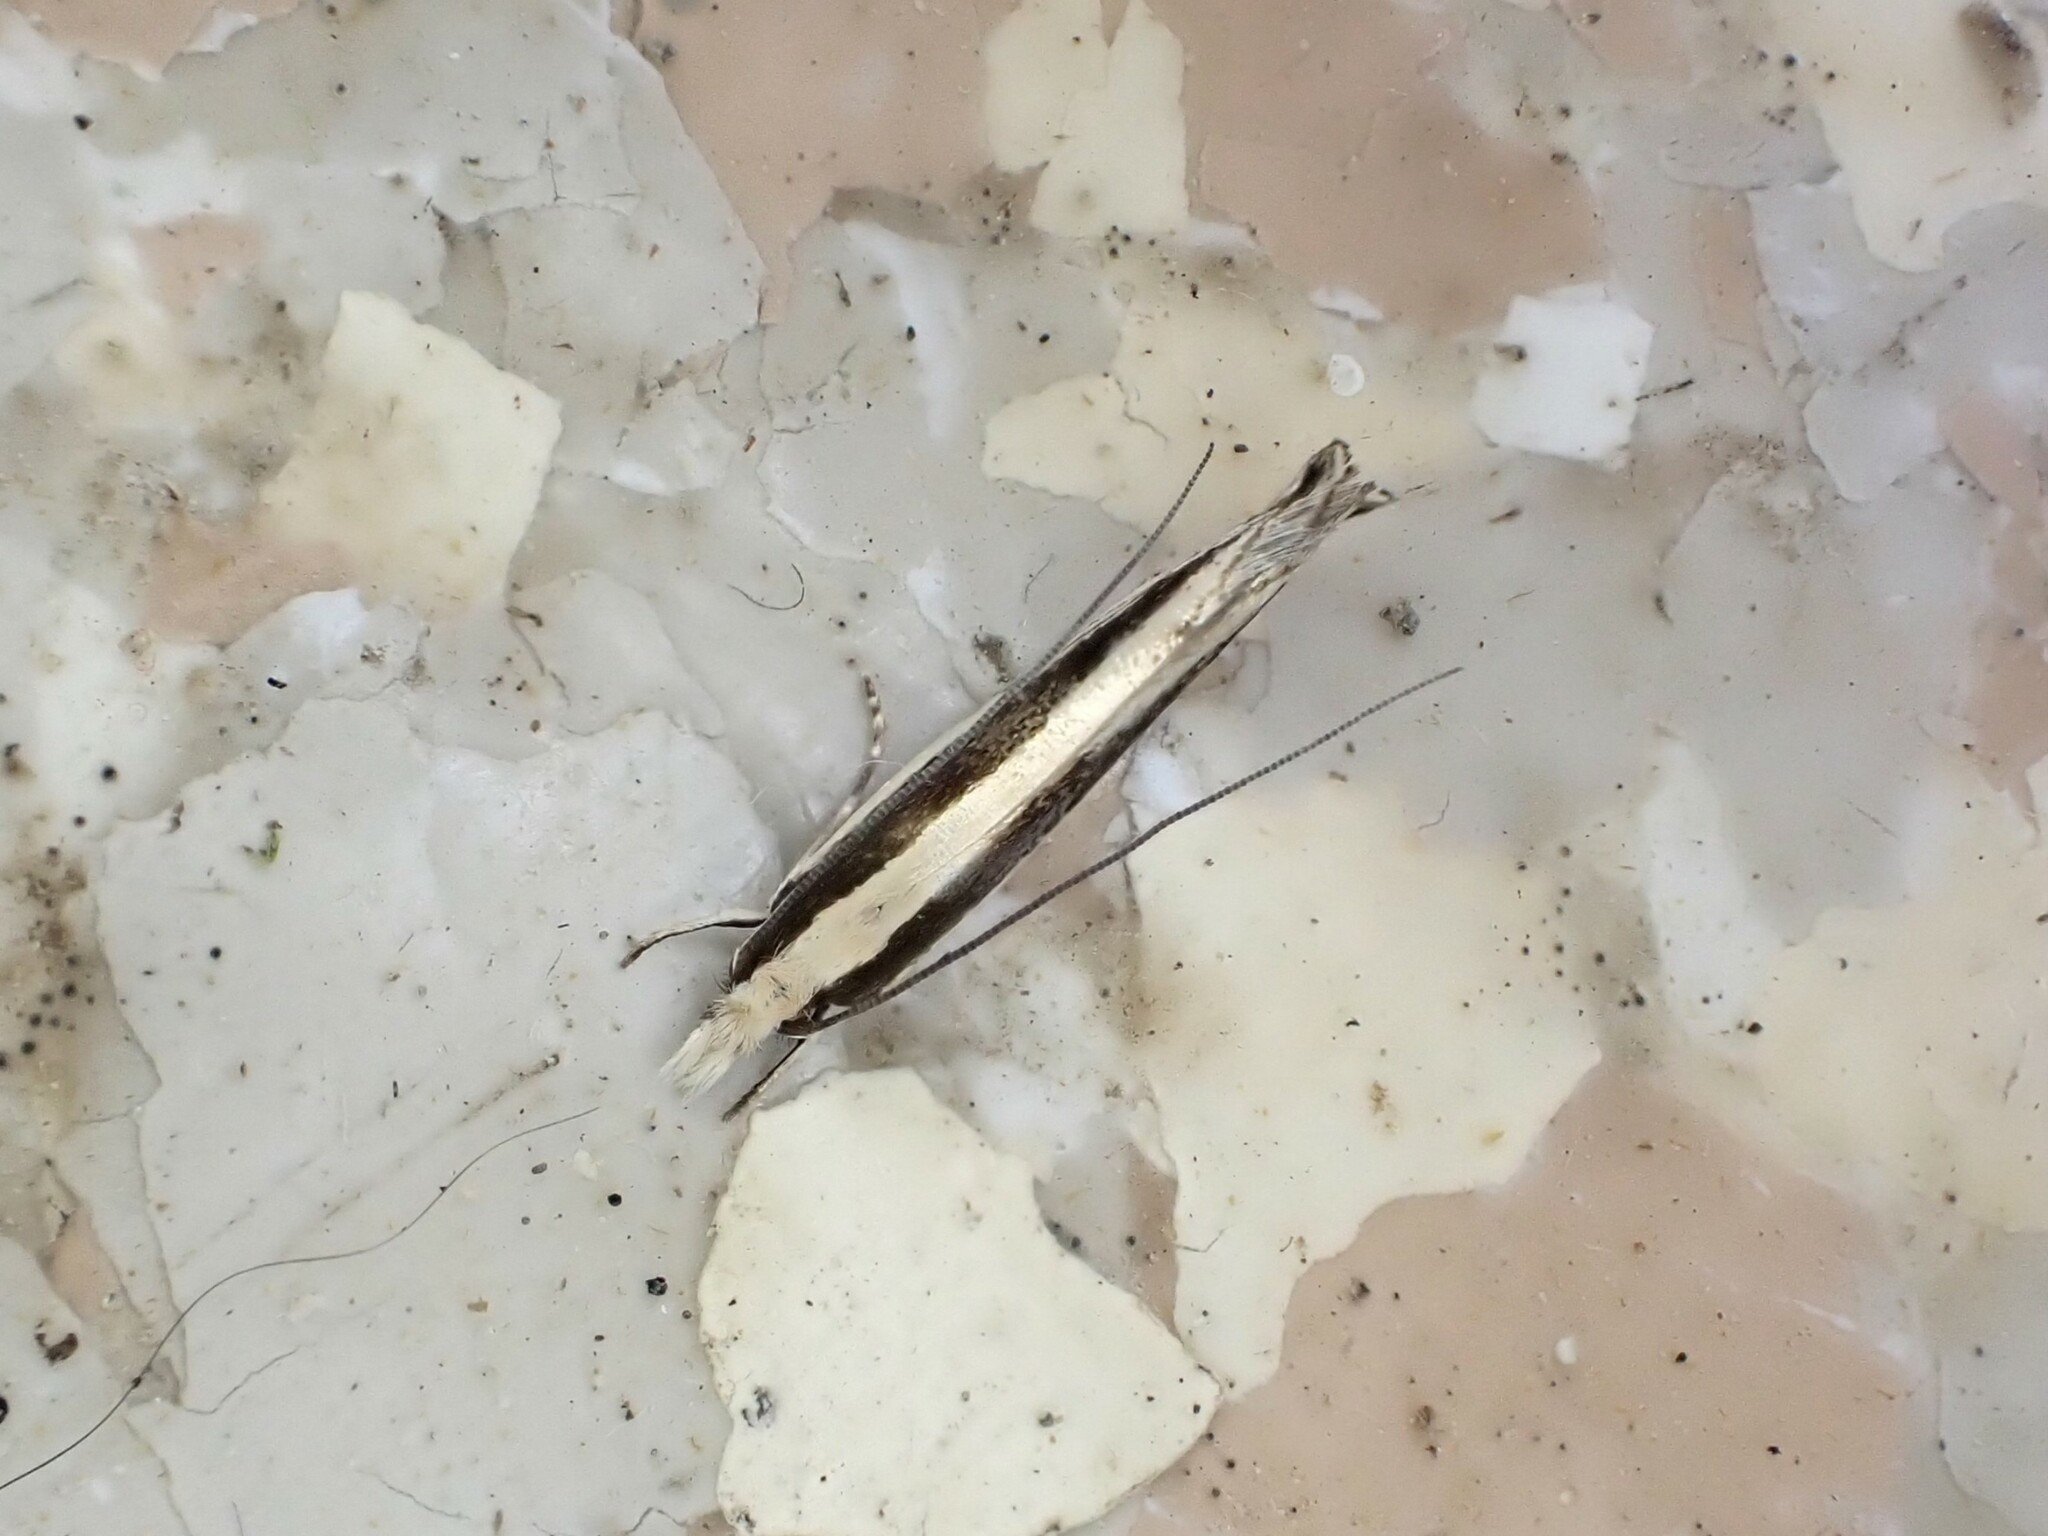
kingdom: Animalia
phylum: Arthropoda
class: Insecta
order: Lepidoptera
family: Tineidae
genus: Erechthias
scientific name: Erechthias stilbella
